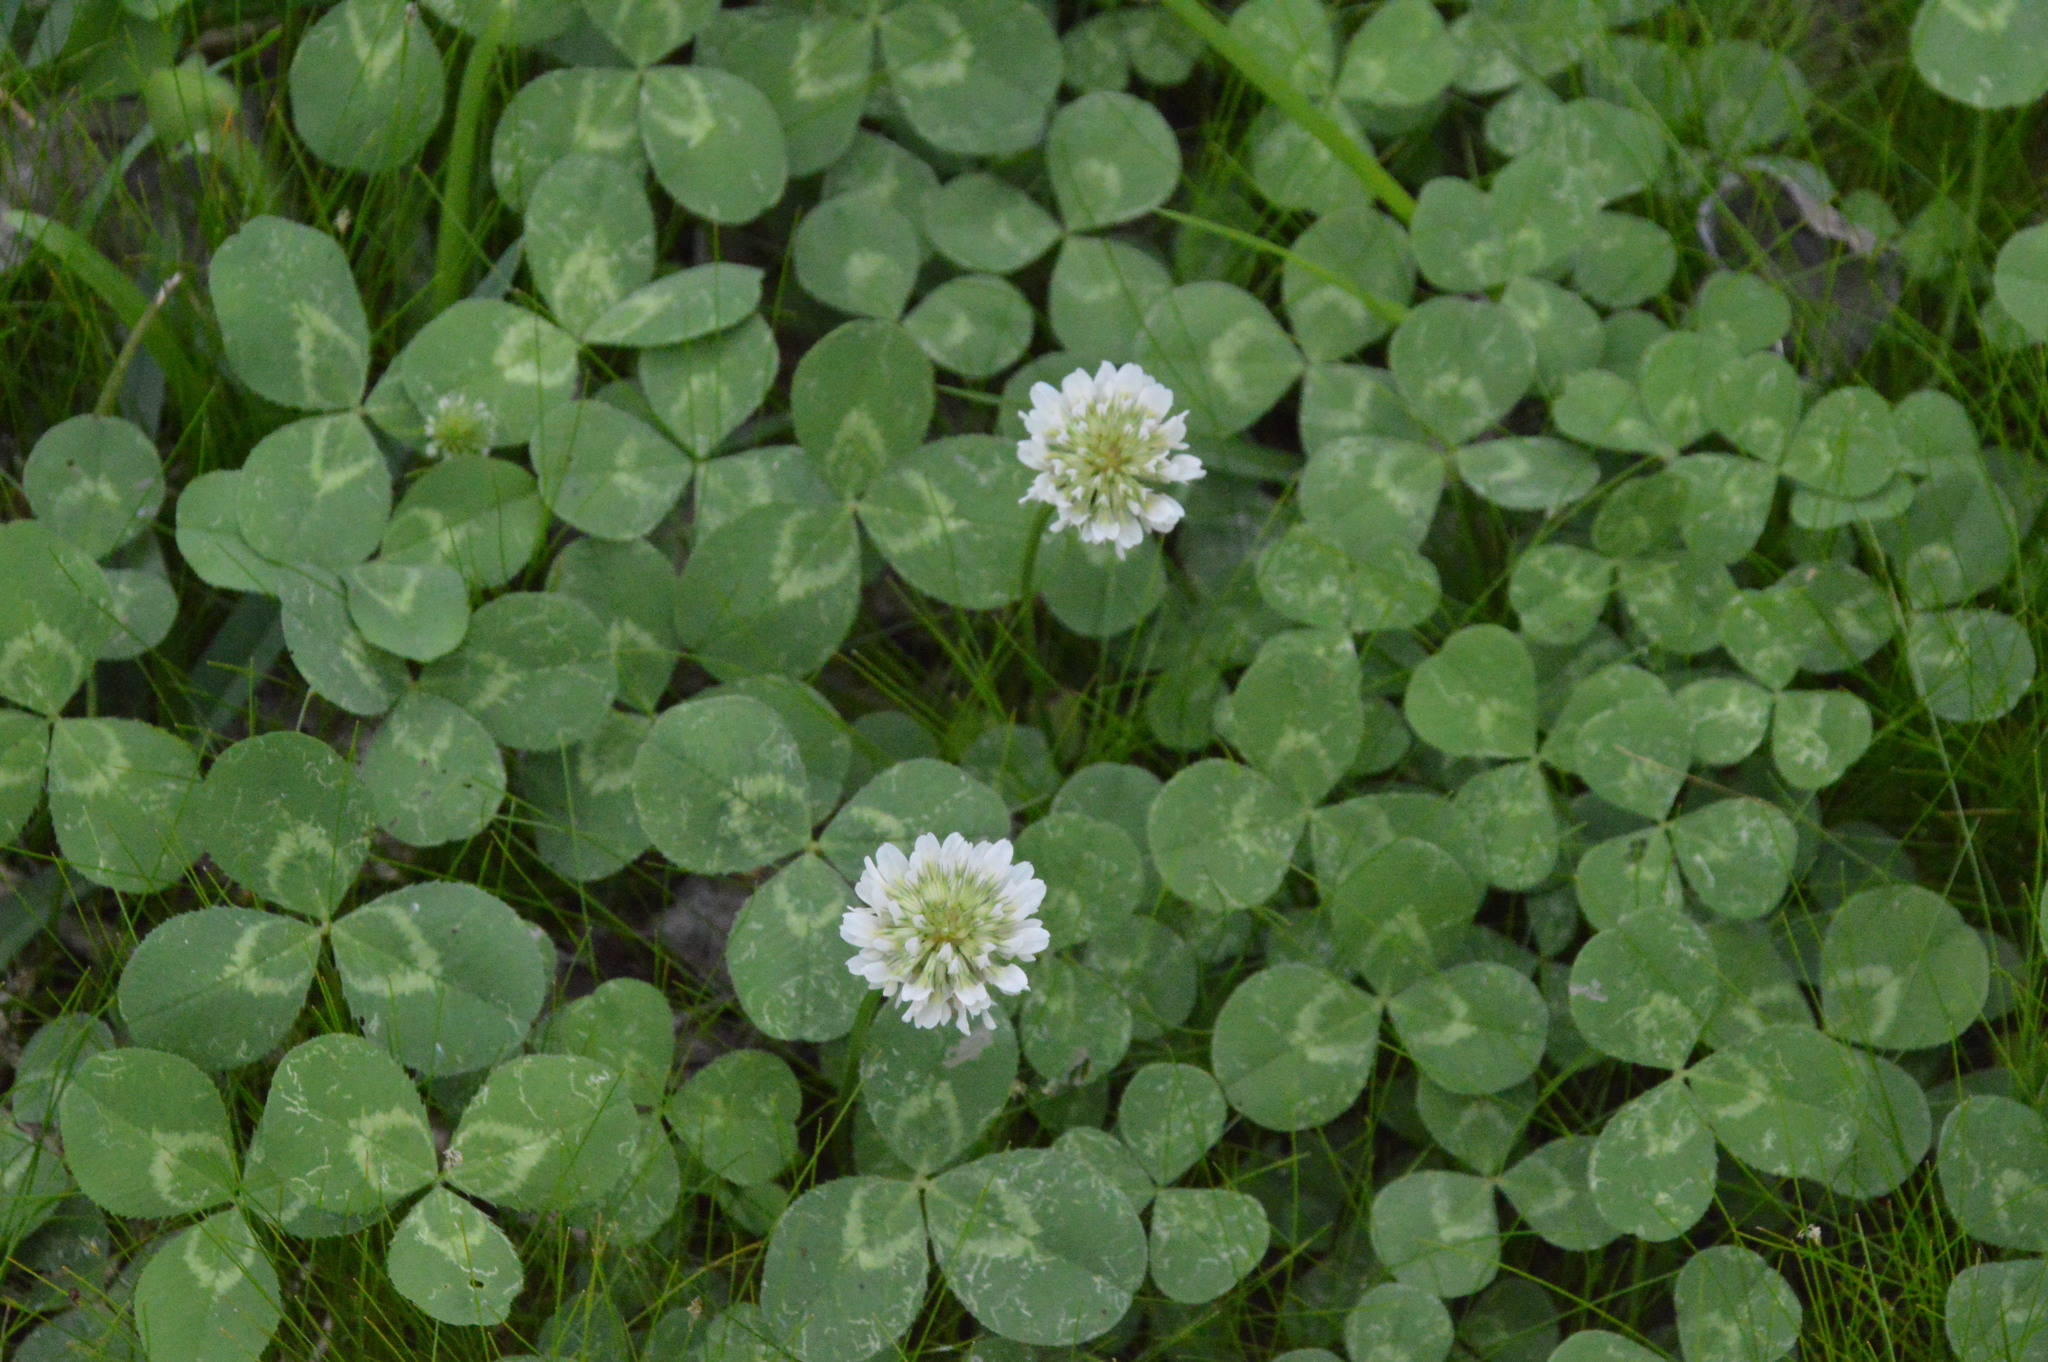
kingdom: Plantae
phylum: Tracheophyta
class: Magnoliopsida
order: Fabales
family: Fabaceae
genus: Trifolium
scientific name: Trifolium repens
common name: White clover
